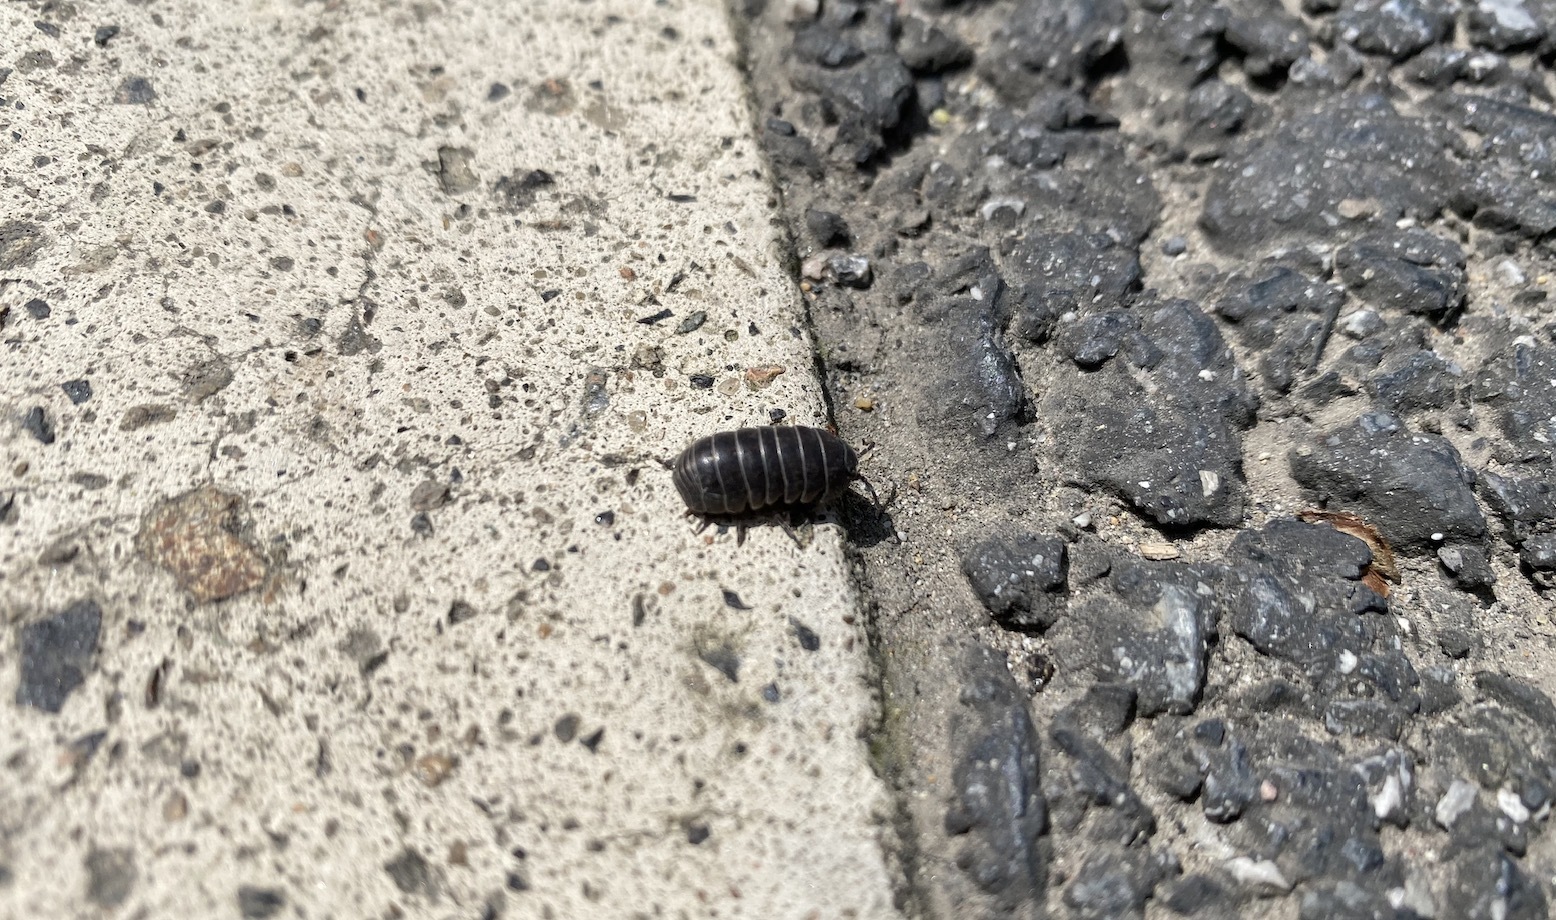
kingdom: Animalia
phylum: Arthropoda
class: Malacostraca
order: Isopoda
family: Armadillidiidae
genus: Armadillidium
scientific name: Armadillidium vulgare
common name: Common pill woodlouse
